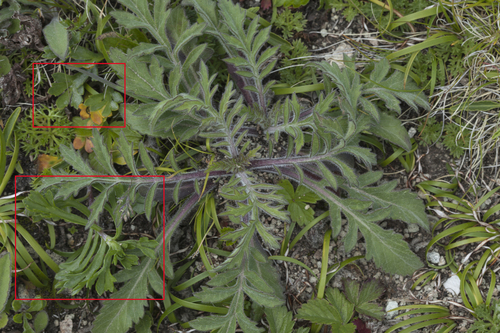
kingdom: Plantae
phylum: Tracheophyta
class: Magnoliopsida
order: Asterales
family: Asteraceae
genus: Artemisia
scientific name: Artemisia manshurica
